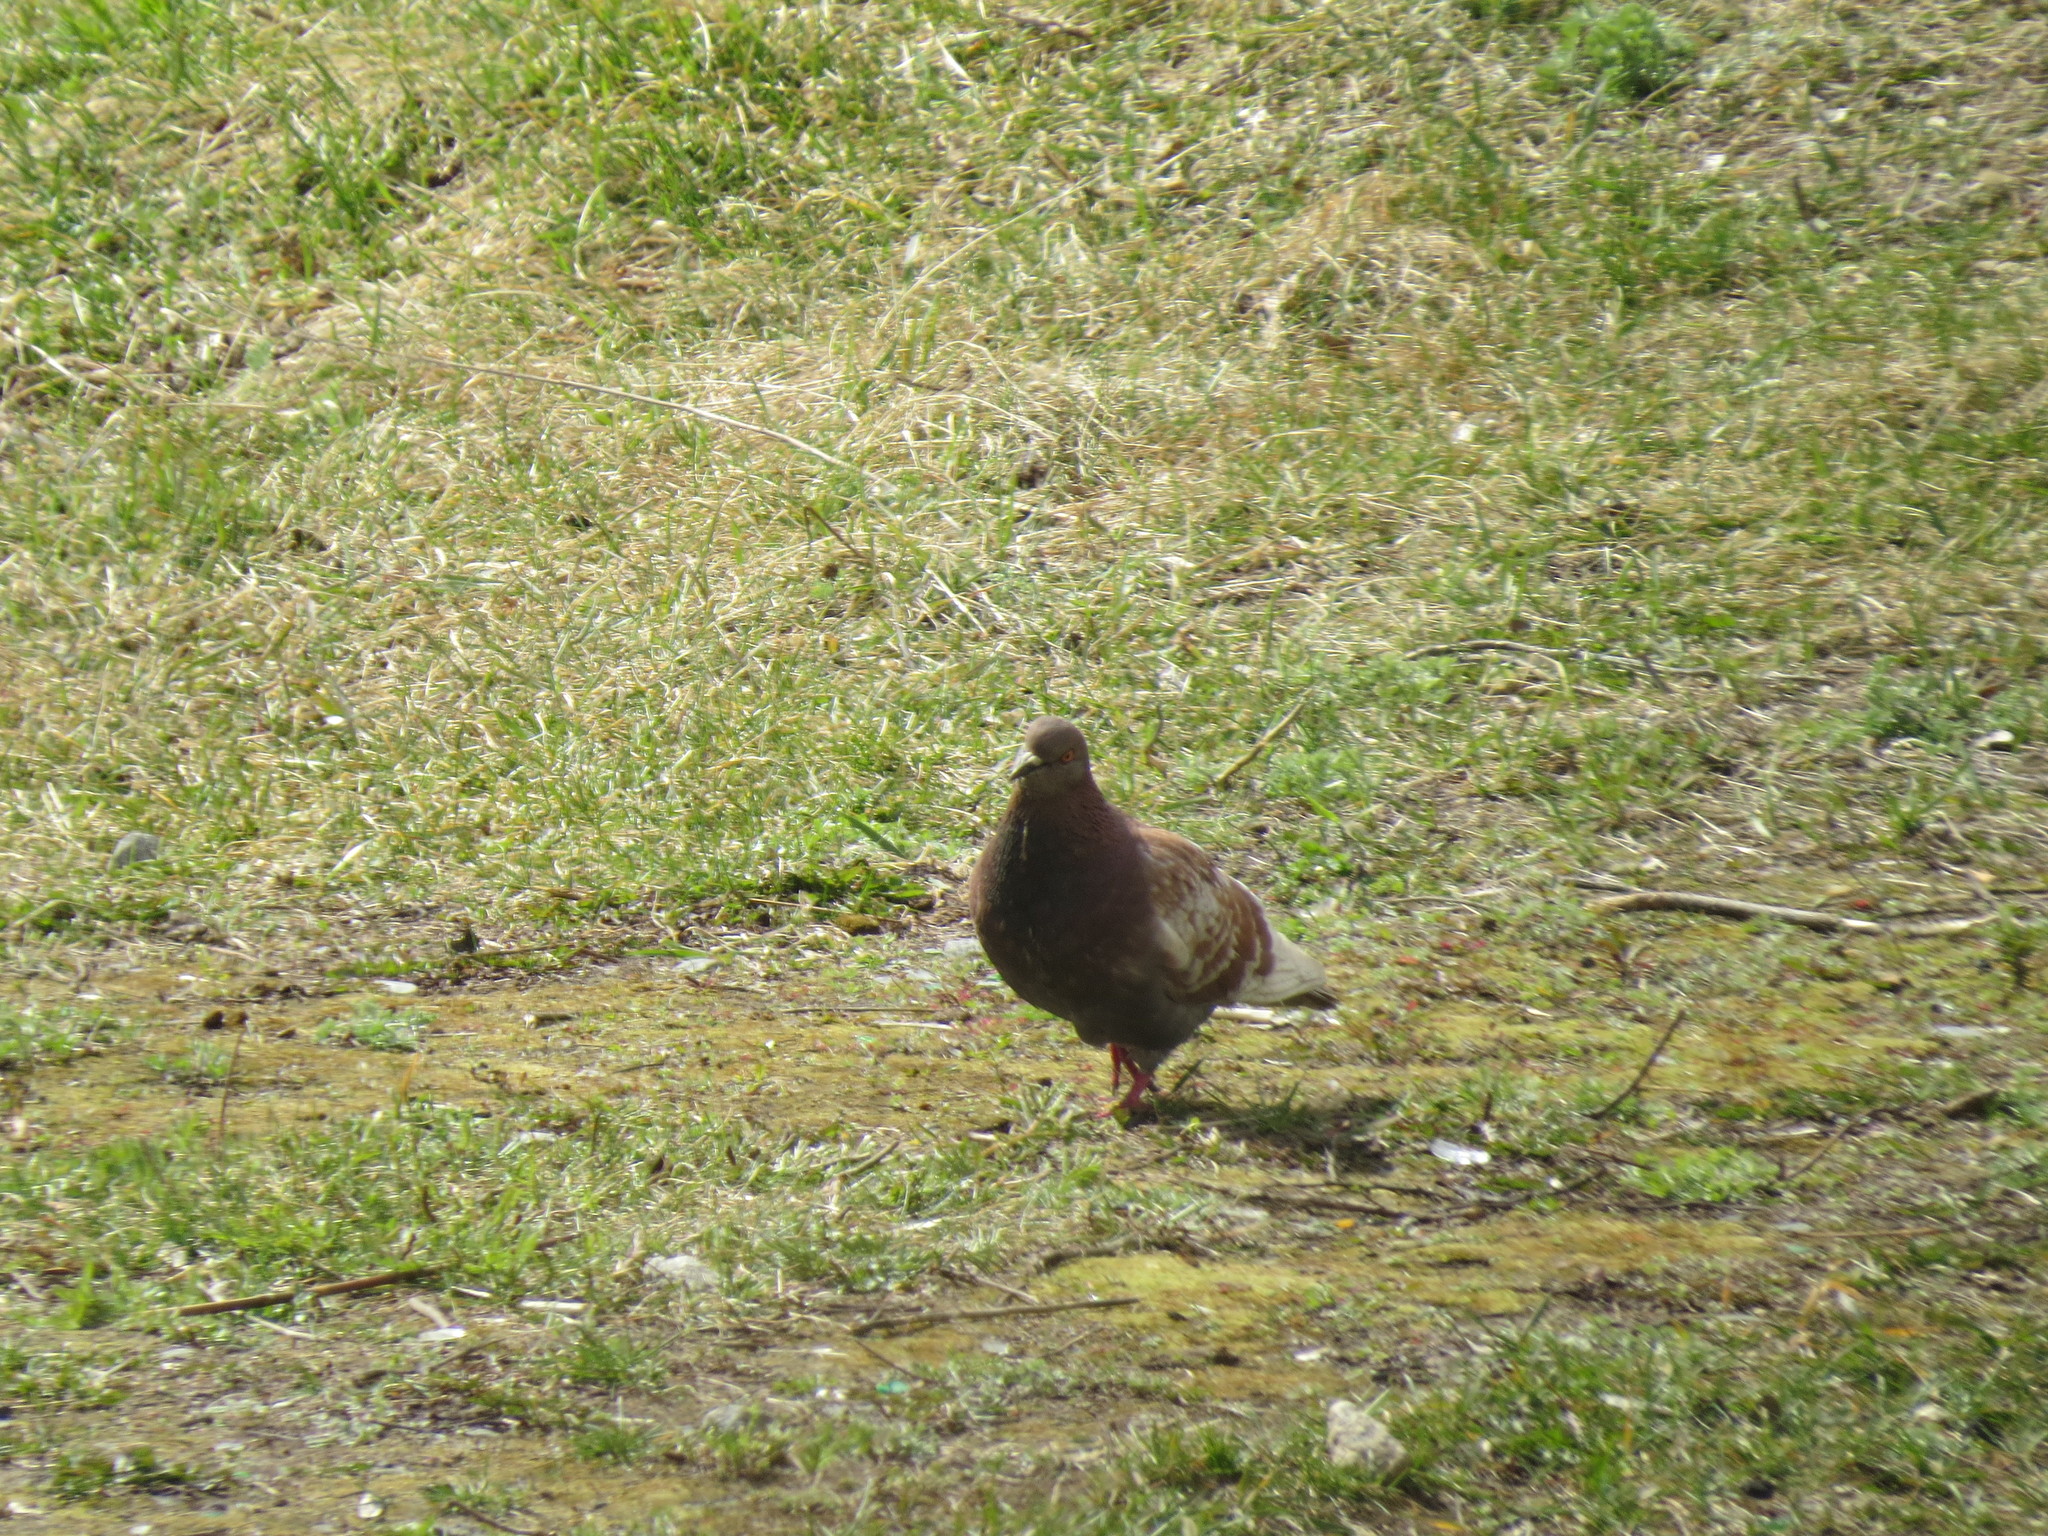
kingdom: Animalia
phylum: Chordata
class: Aves
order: Columbiformes
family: Columbidae
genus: Columba
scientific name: Columba livia
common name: Rock pigeon
